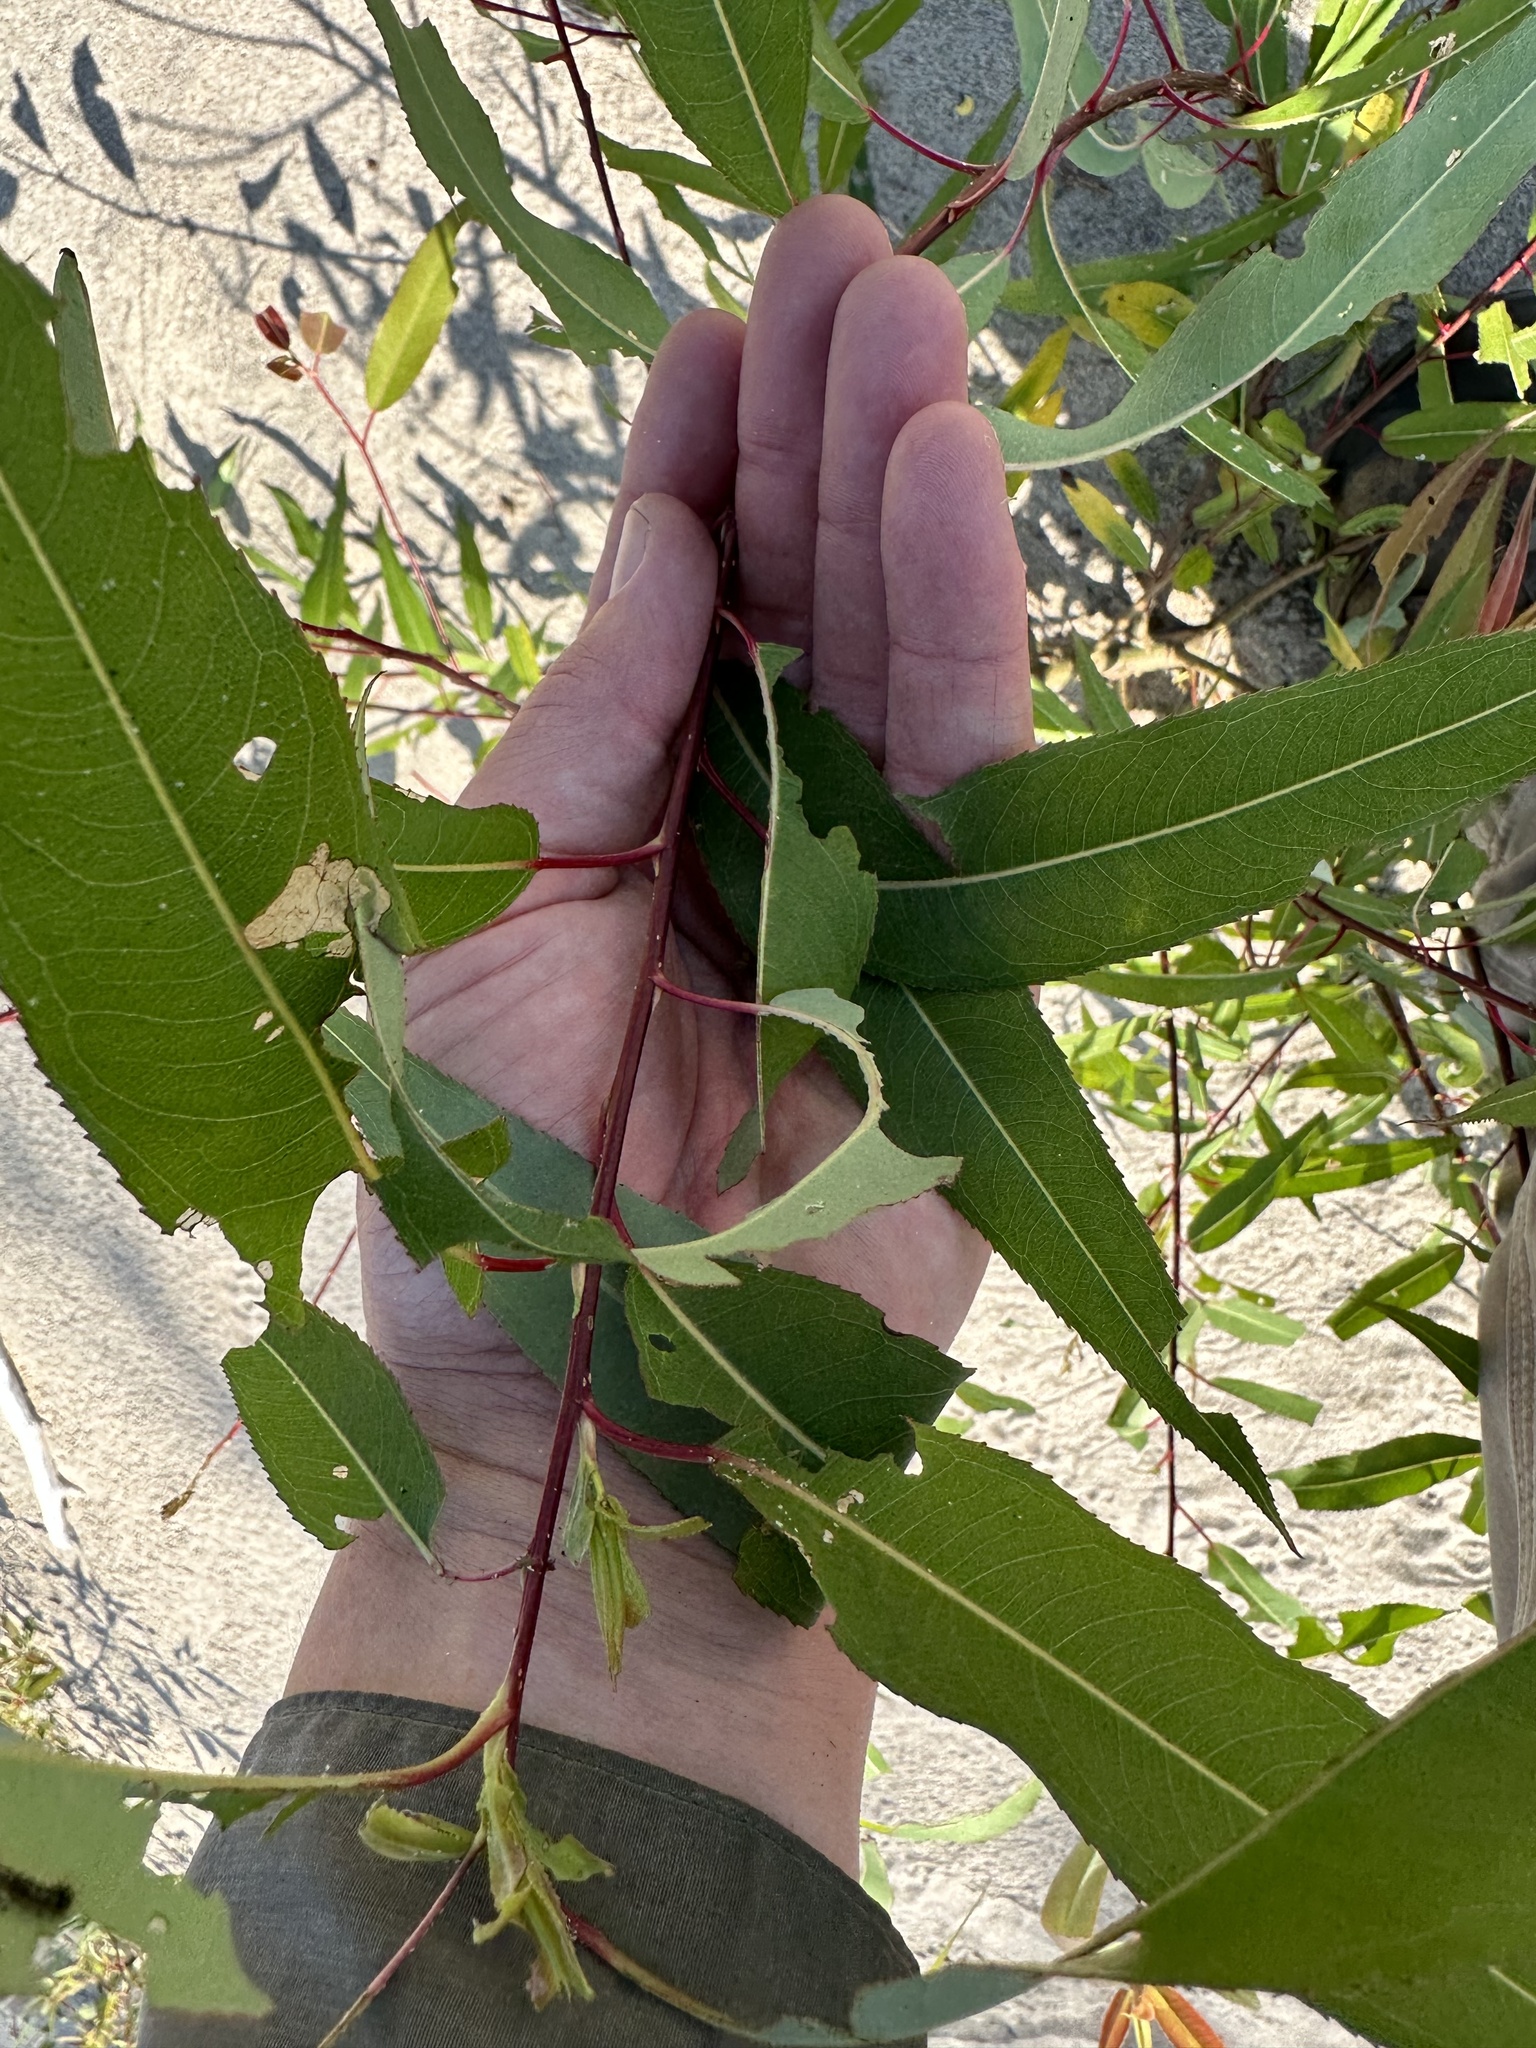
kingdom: Plantae
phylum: Tracheophyta
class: Magnoliopsida
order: Malpighiales
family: Salicaceae
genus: Salix
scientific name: Salix amygdaloides
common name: Peach leaf willow
